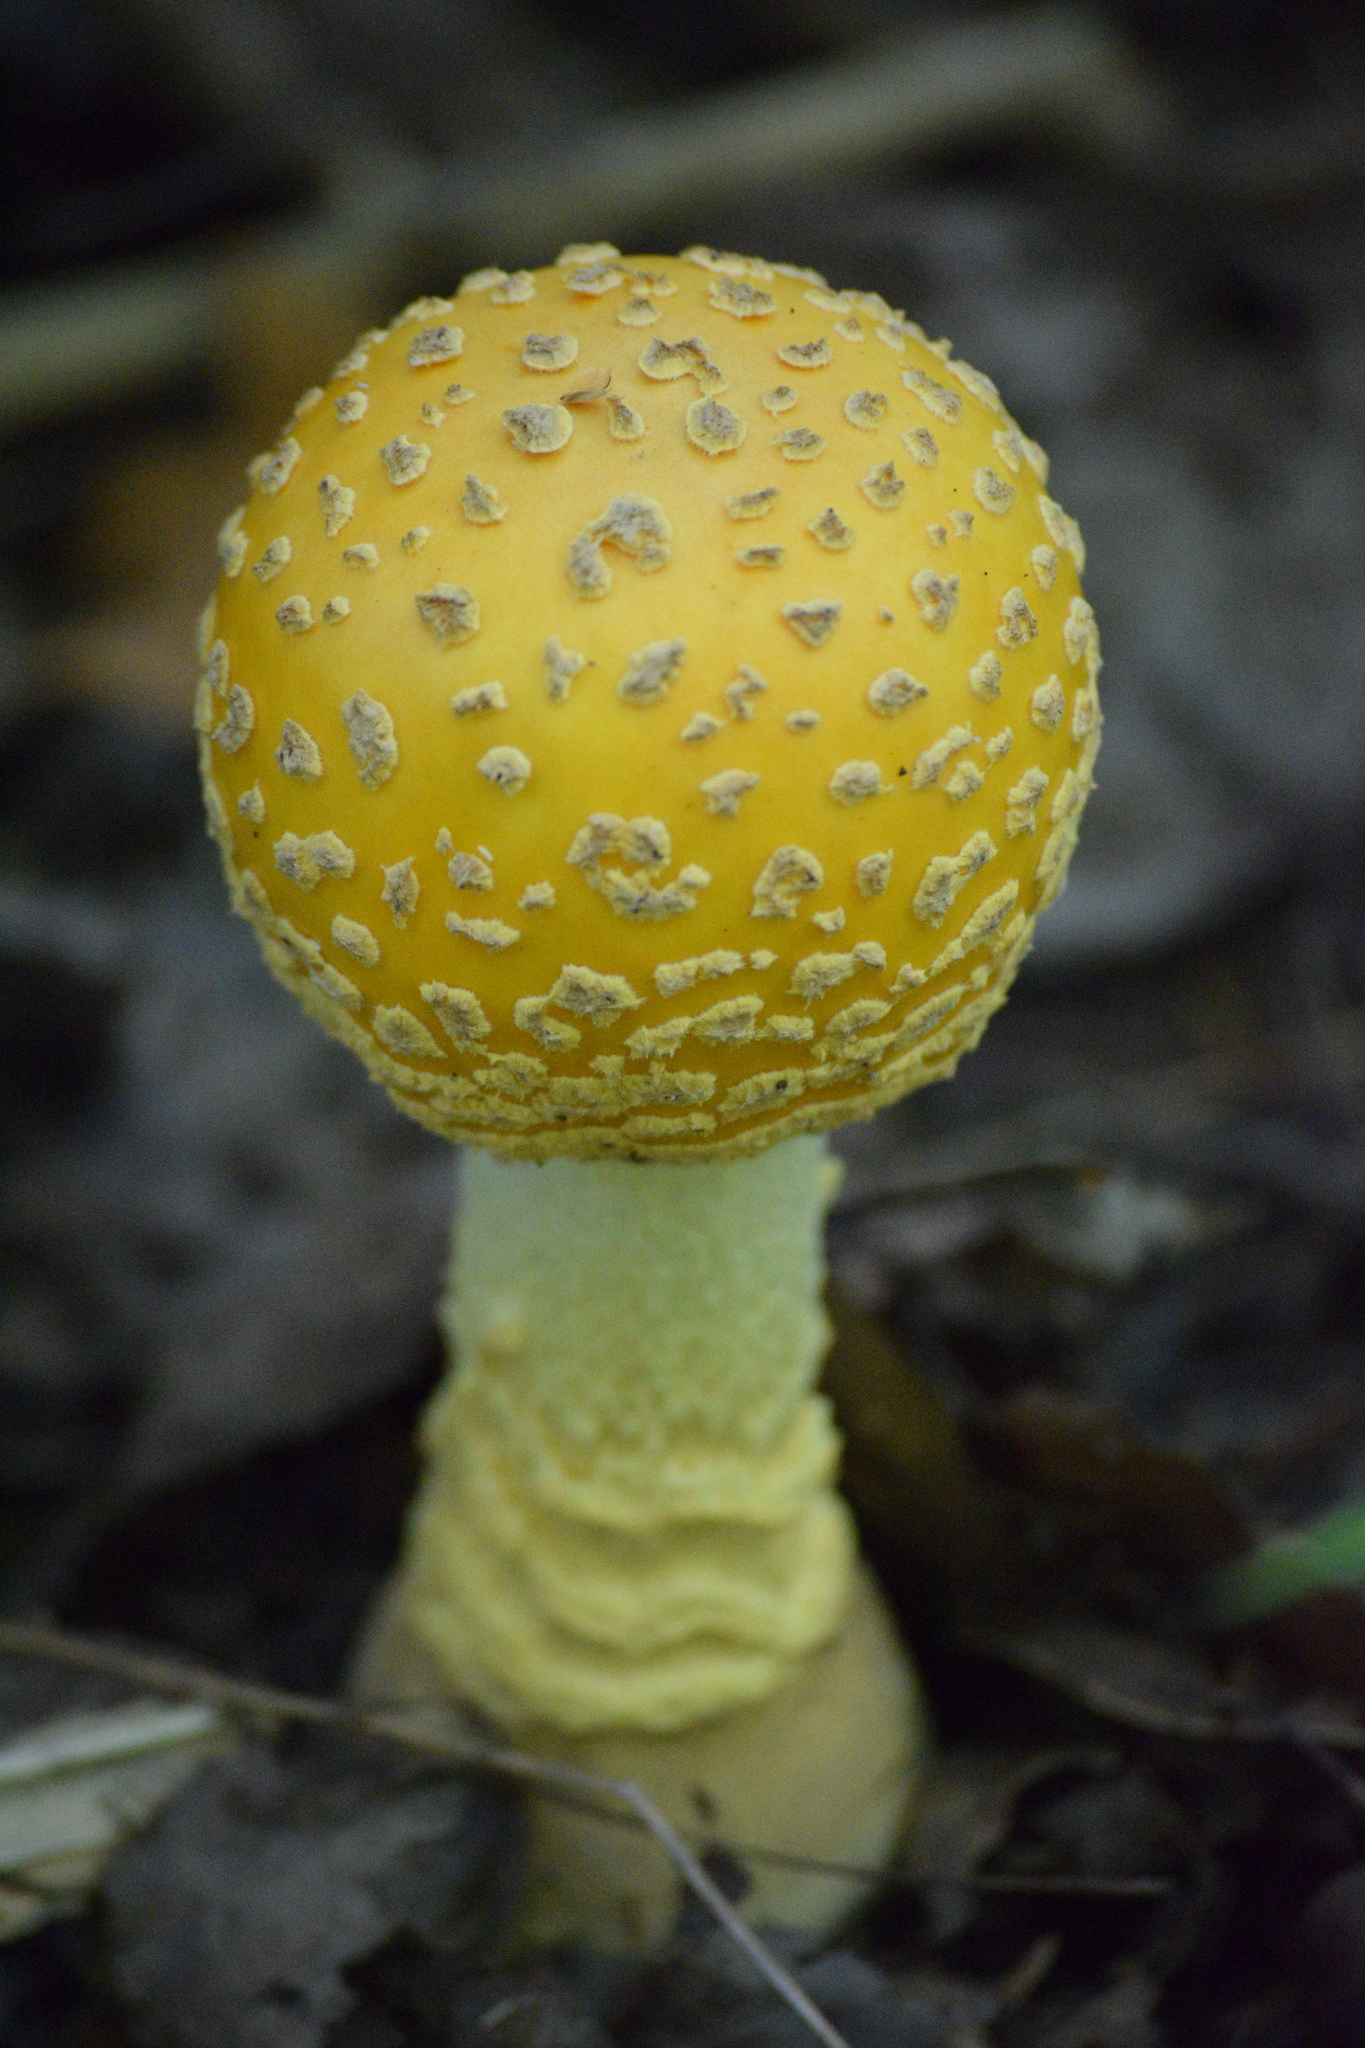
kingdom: Fungi
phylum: Basidiomycota
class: Agaricomycetes
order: Agaricales
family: Amanitaceae
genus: Amanita
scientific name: Amanita muscaria
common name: Fly agaric
